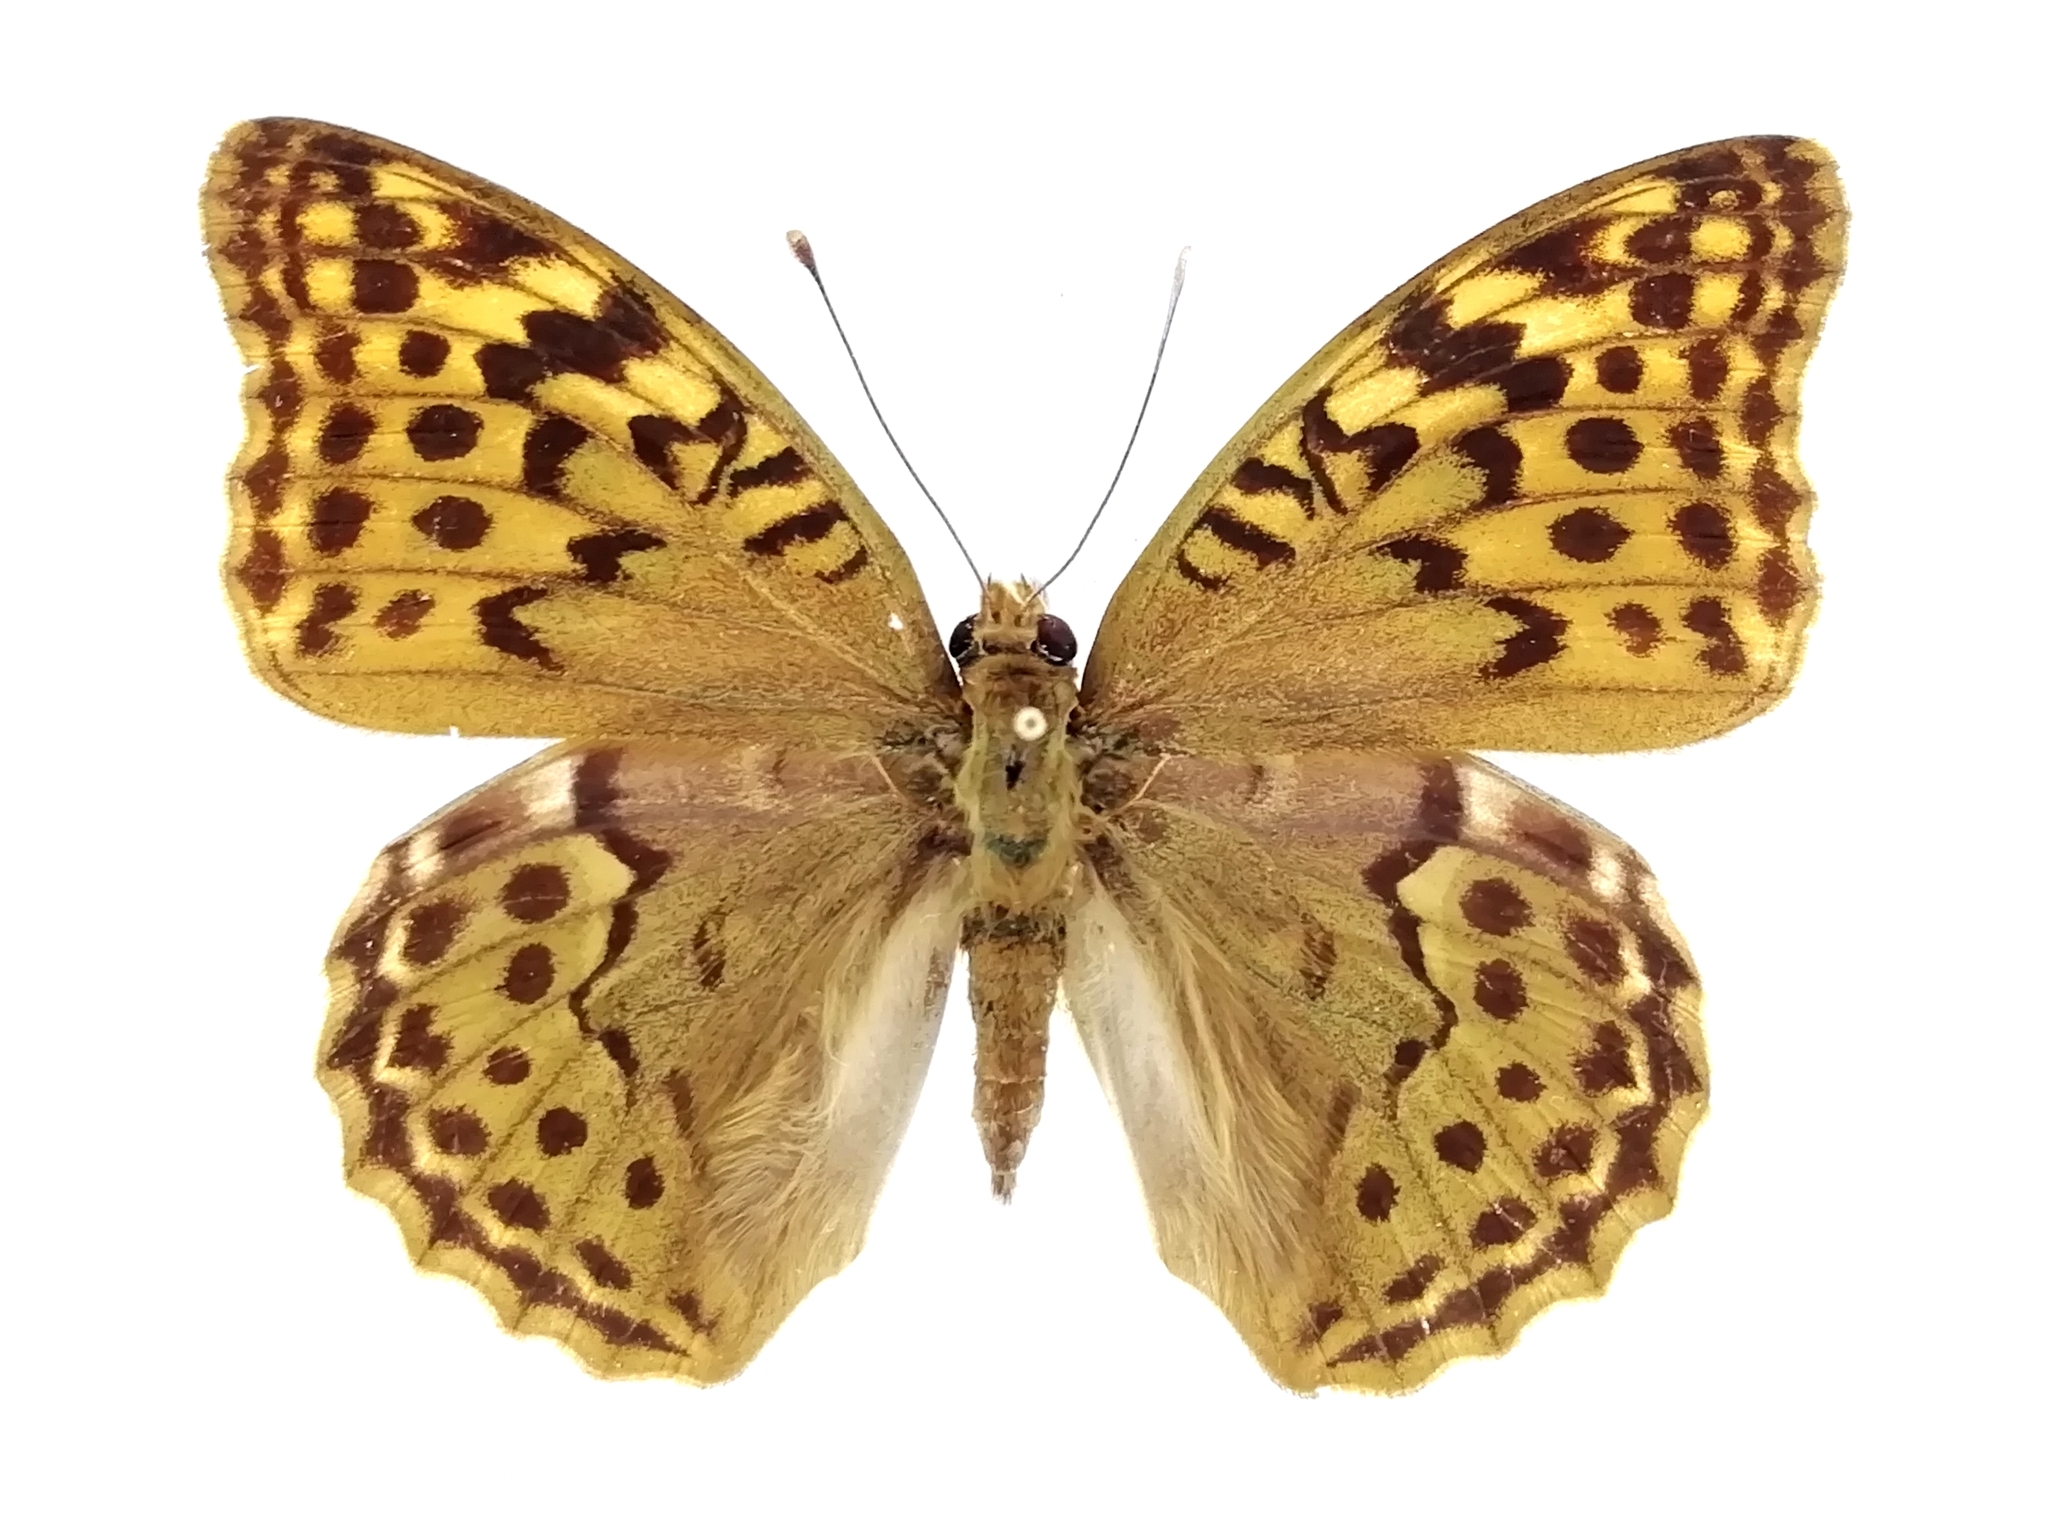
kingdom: Animalia
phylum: Arthropoda
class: Insecta
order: Lepidoptera
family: Nymphalidae
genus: Damora
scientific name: Damora pandora
